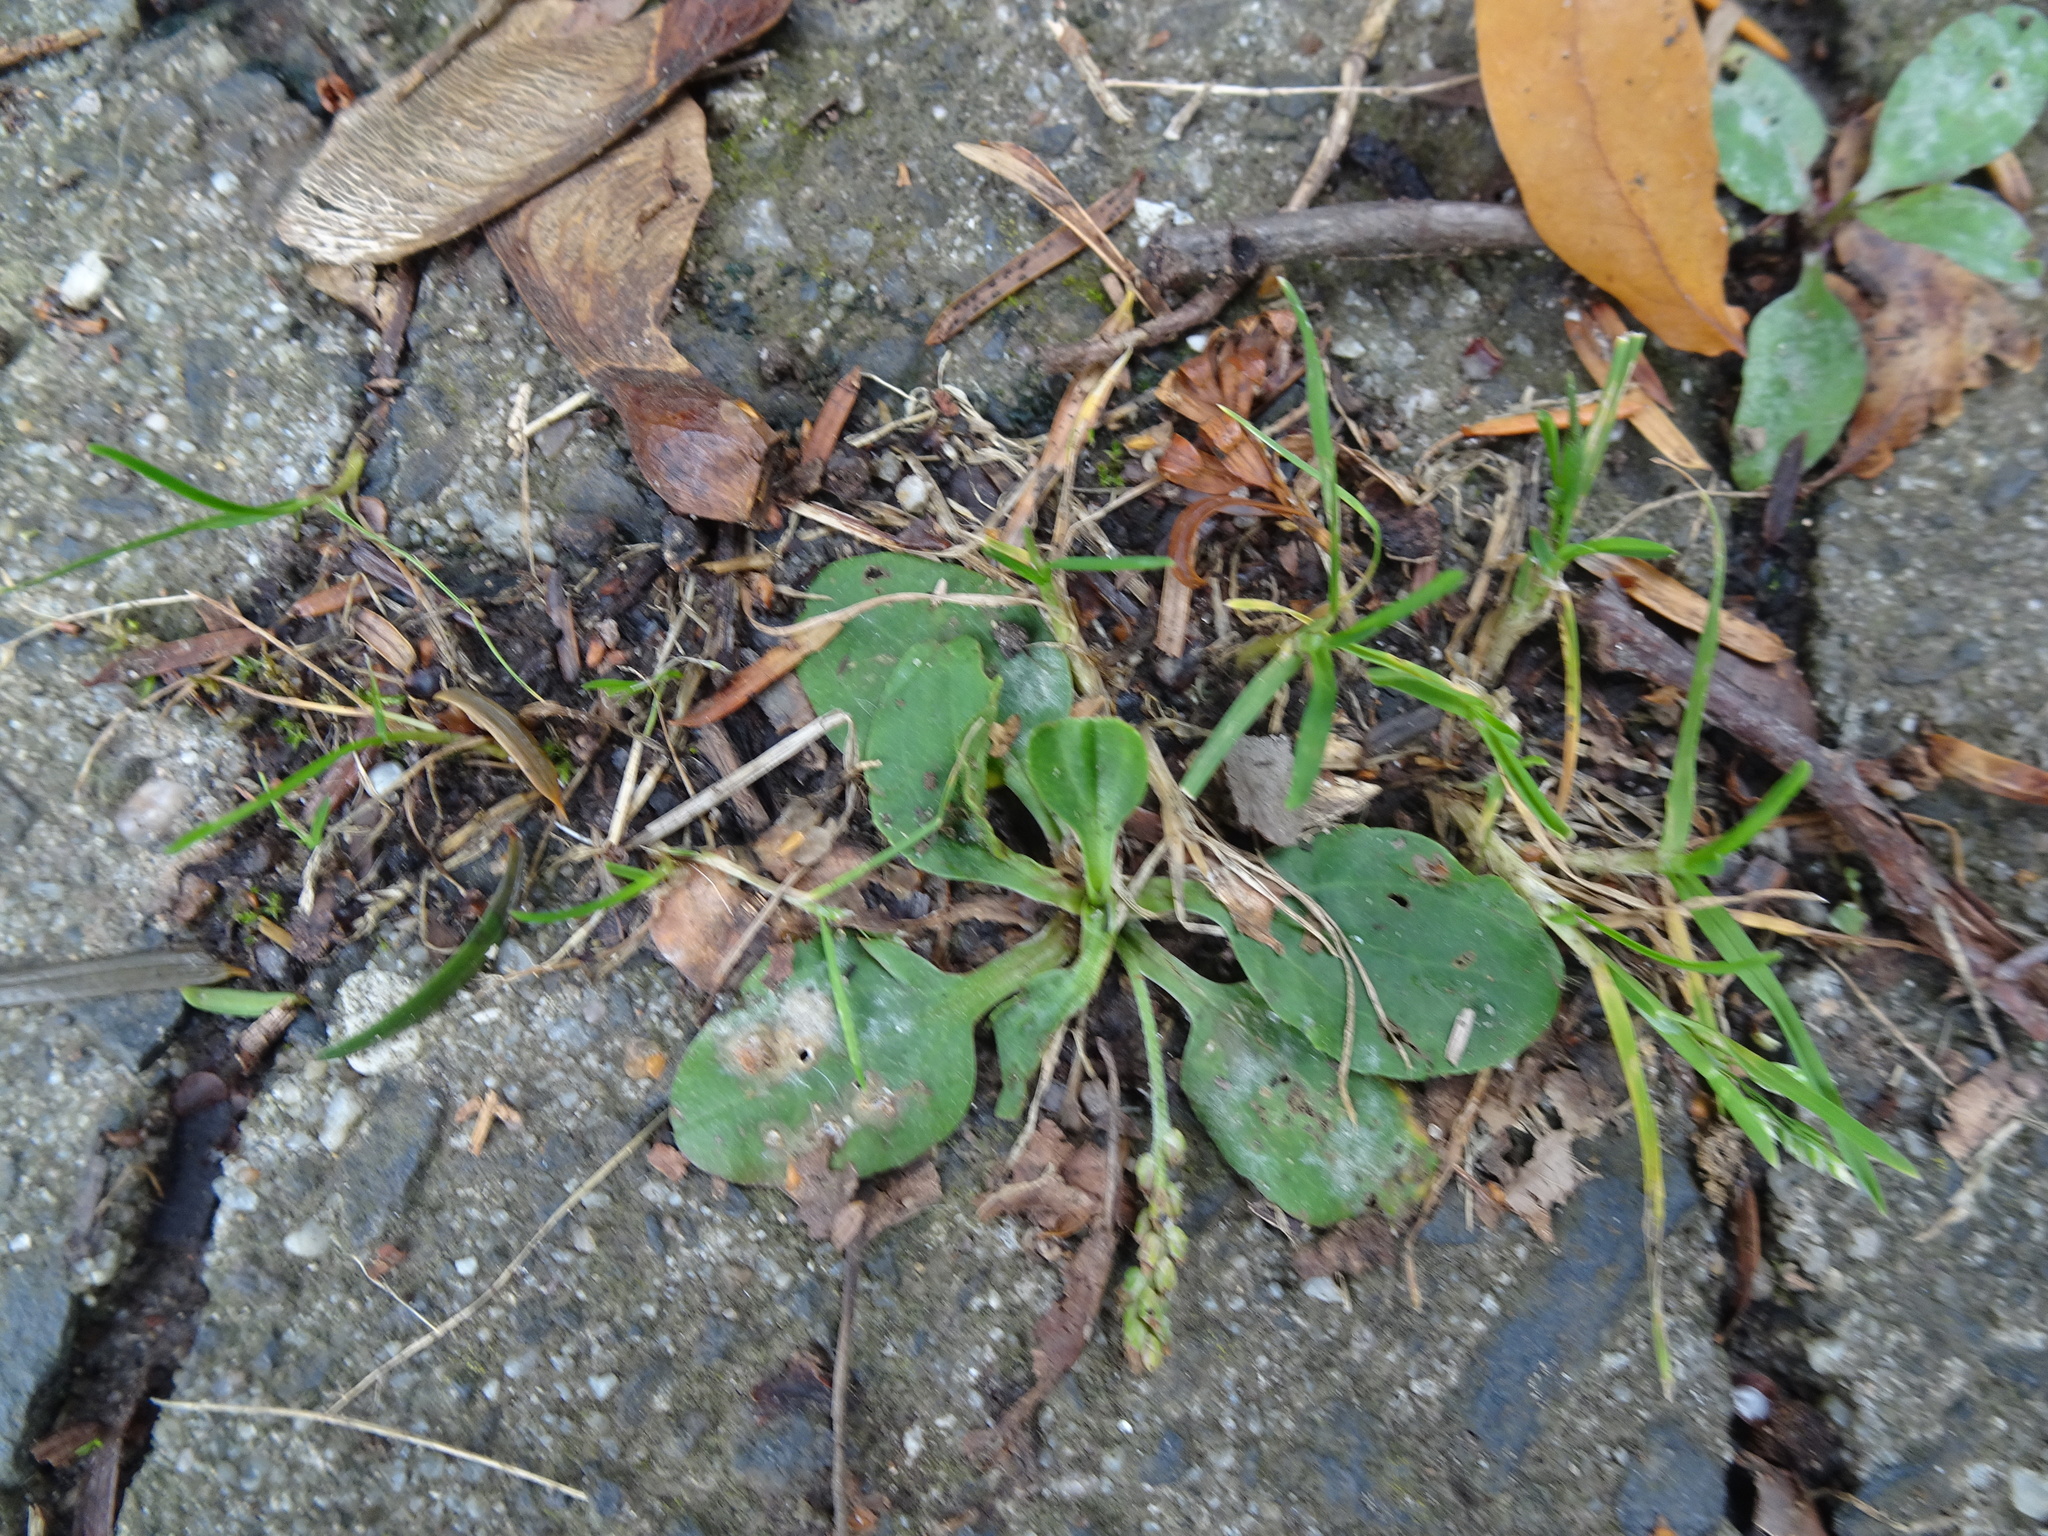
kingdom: Plantae
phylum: Tracheophyta
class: Magnoliopsida
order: Lamiales
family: Plantaginaceae
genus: Plantago
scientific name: Plantago major
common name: Common plantain
